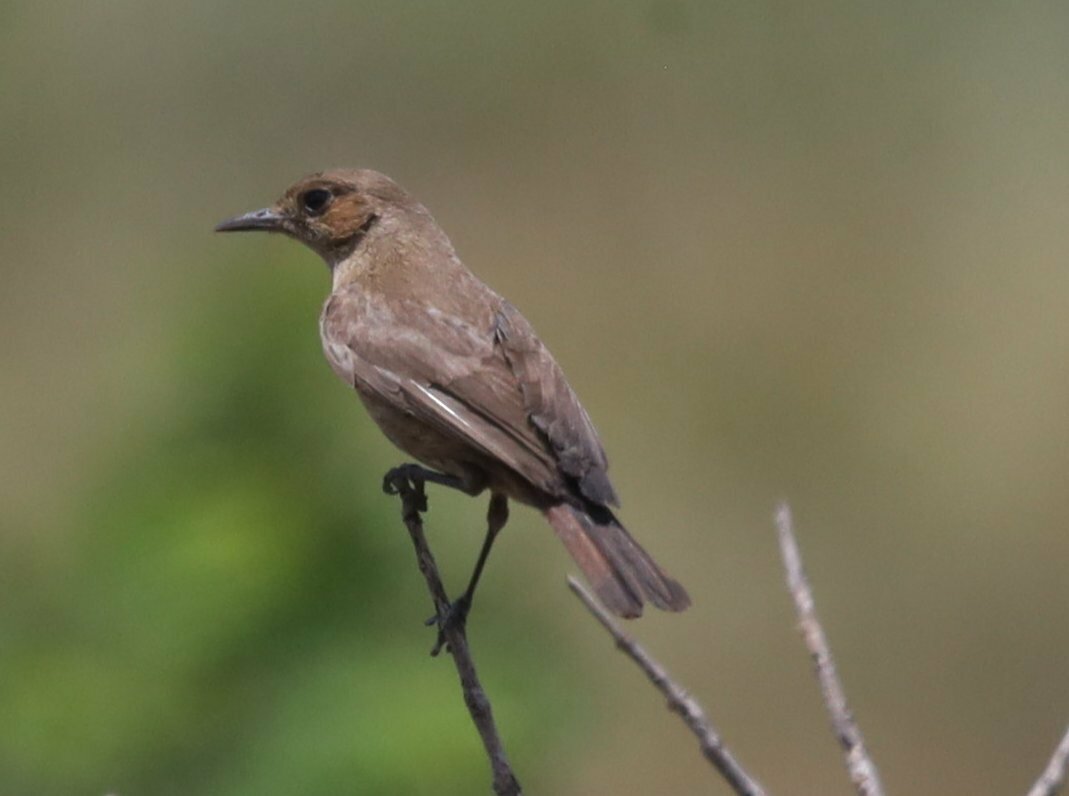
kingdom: Animalia
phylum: Chordata
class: Aves
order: Passeriformes
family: Muscicapidae
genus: Oenanthe
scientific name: Oenanthe familiaris
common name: Familiar chat
